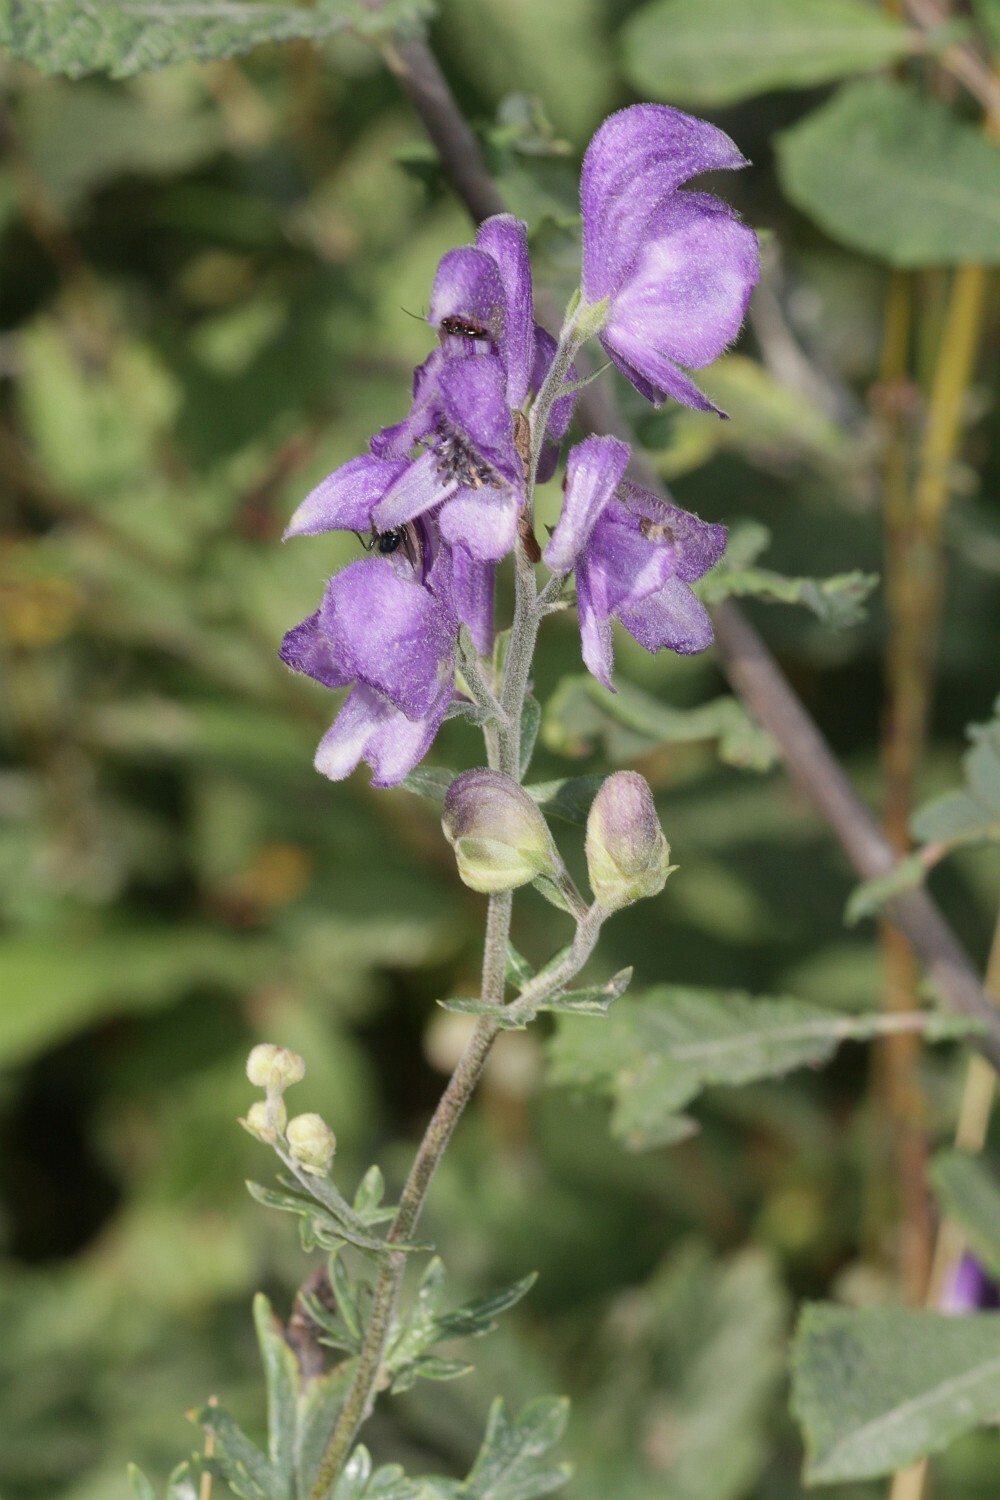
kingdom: Plantae
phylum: Tracheophyta
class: Magnoliopsida
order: Ranunculales
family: Ranunculaceae
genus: Aconitum
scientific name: Aconitum napellus
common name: Garden monkshood
